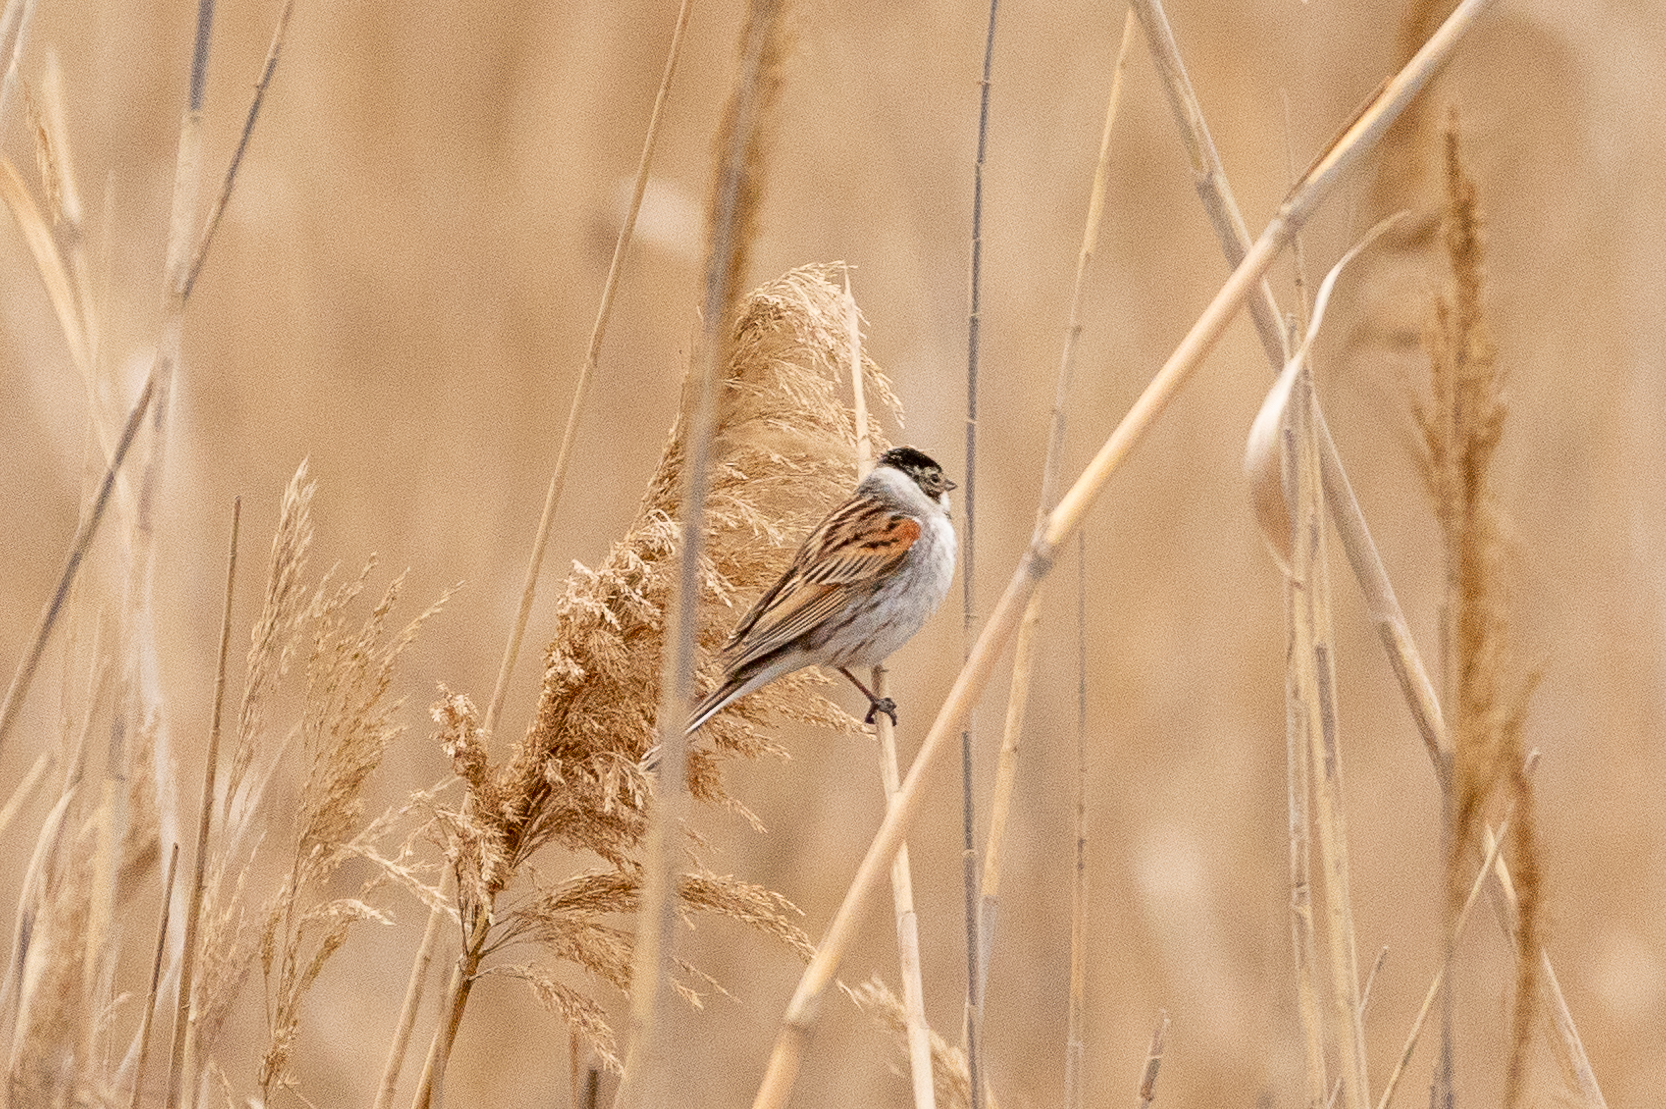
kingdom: Animalia
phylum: Chordata
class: Aves
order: Passeriformes
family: Emberizidae
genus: Emberiza
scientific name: Emberiza schoeniclus
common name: Reed bunting
